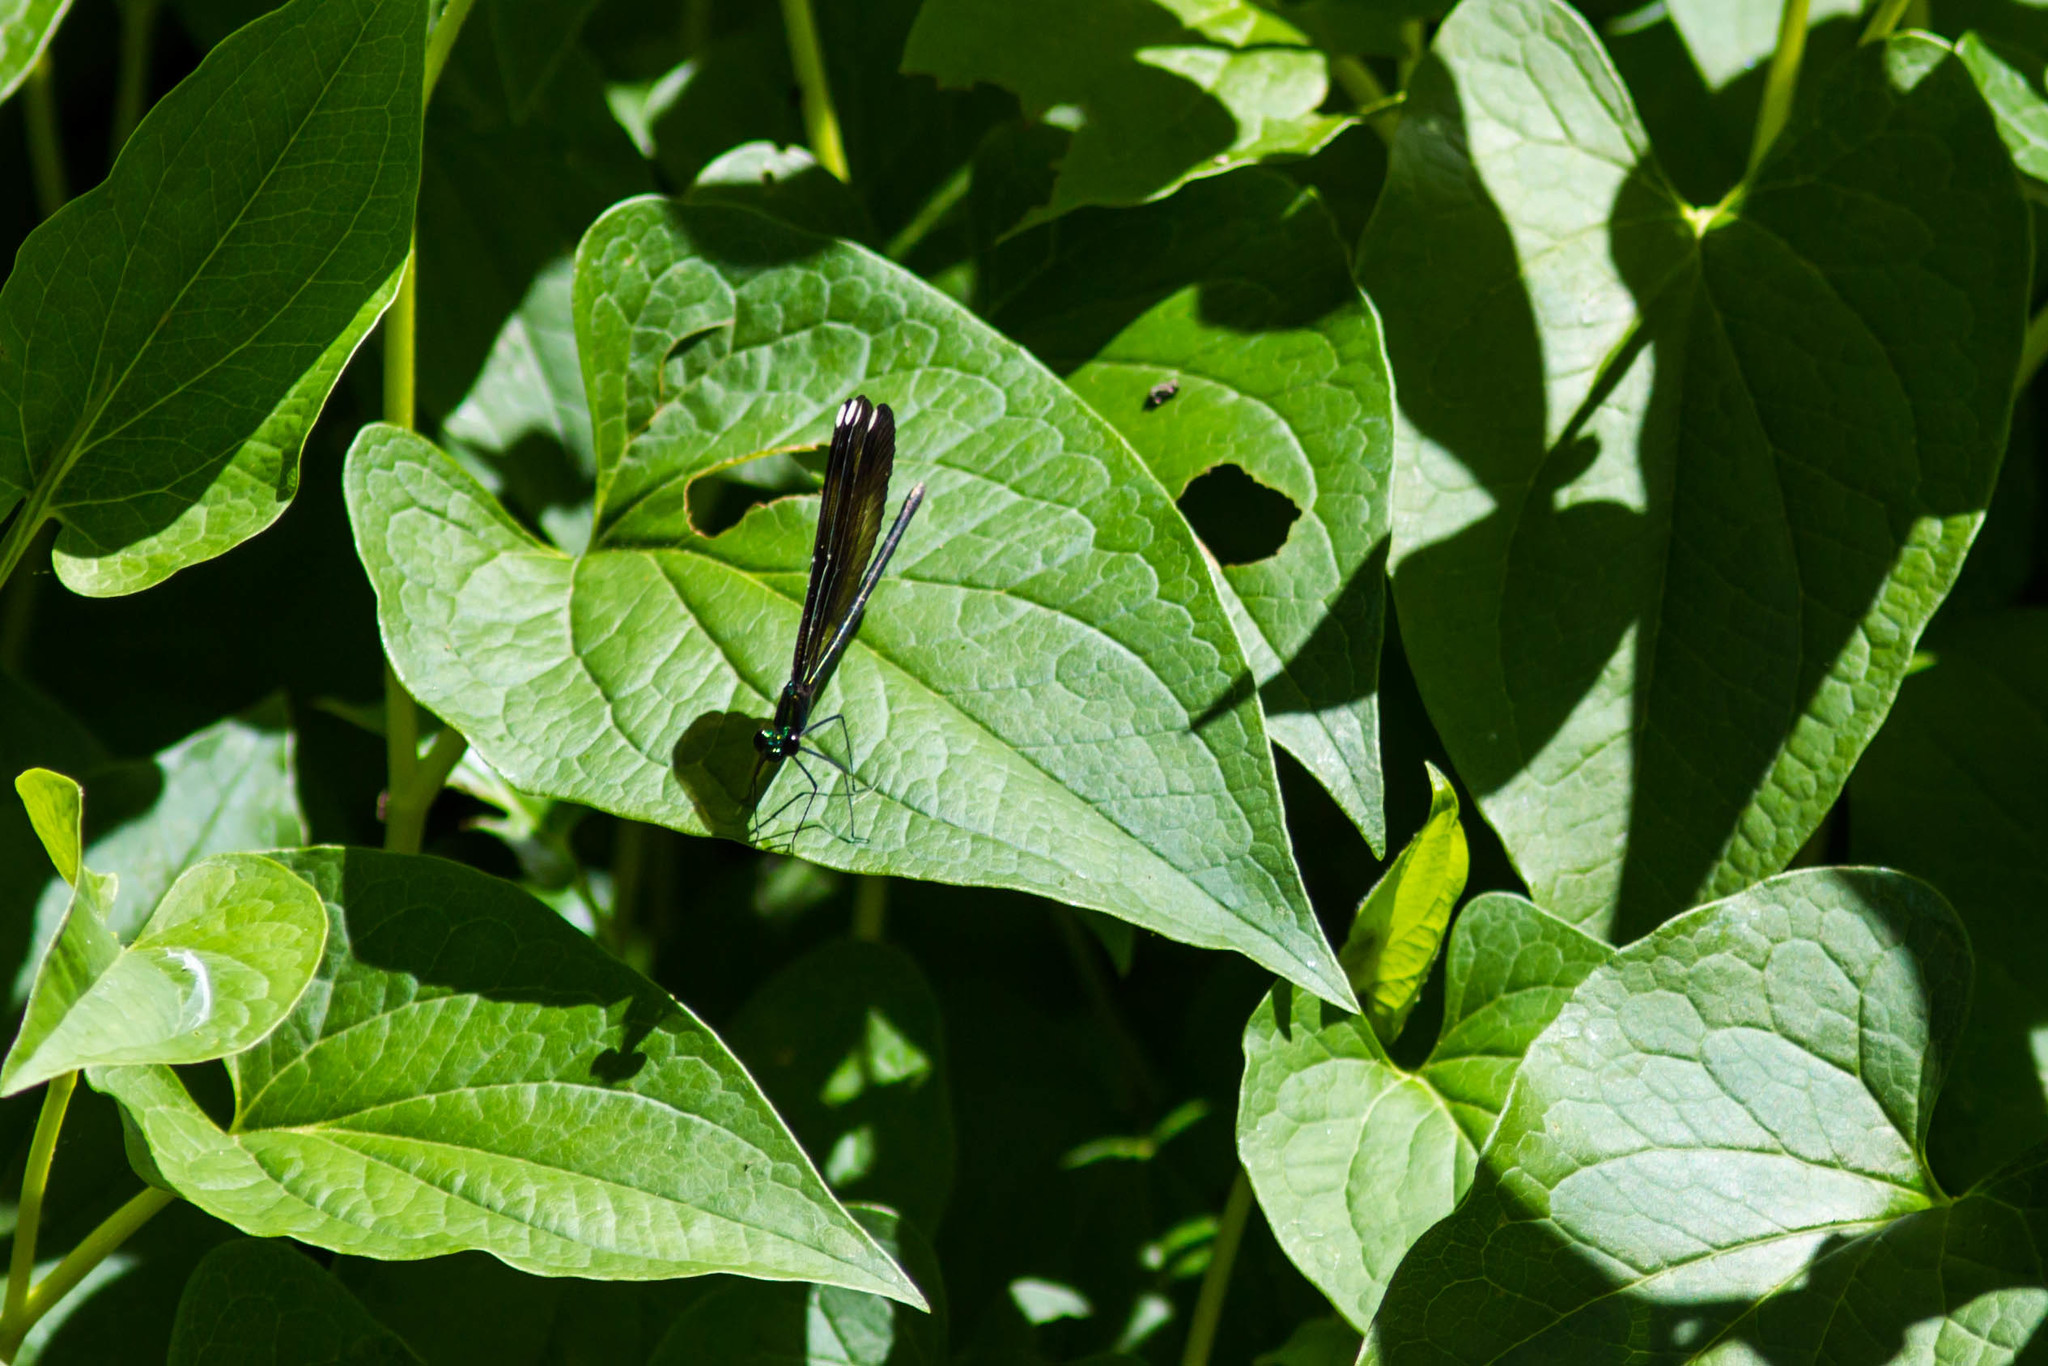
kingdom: Animalia
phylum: Arthropoda
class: Insecta
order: Odonata
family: Calopterygidae
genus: Calopteryx
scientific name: Calopteryx maculata
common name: Ebony jewelwing
